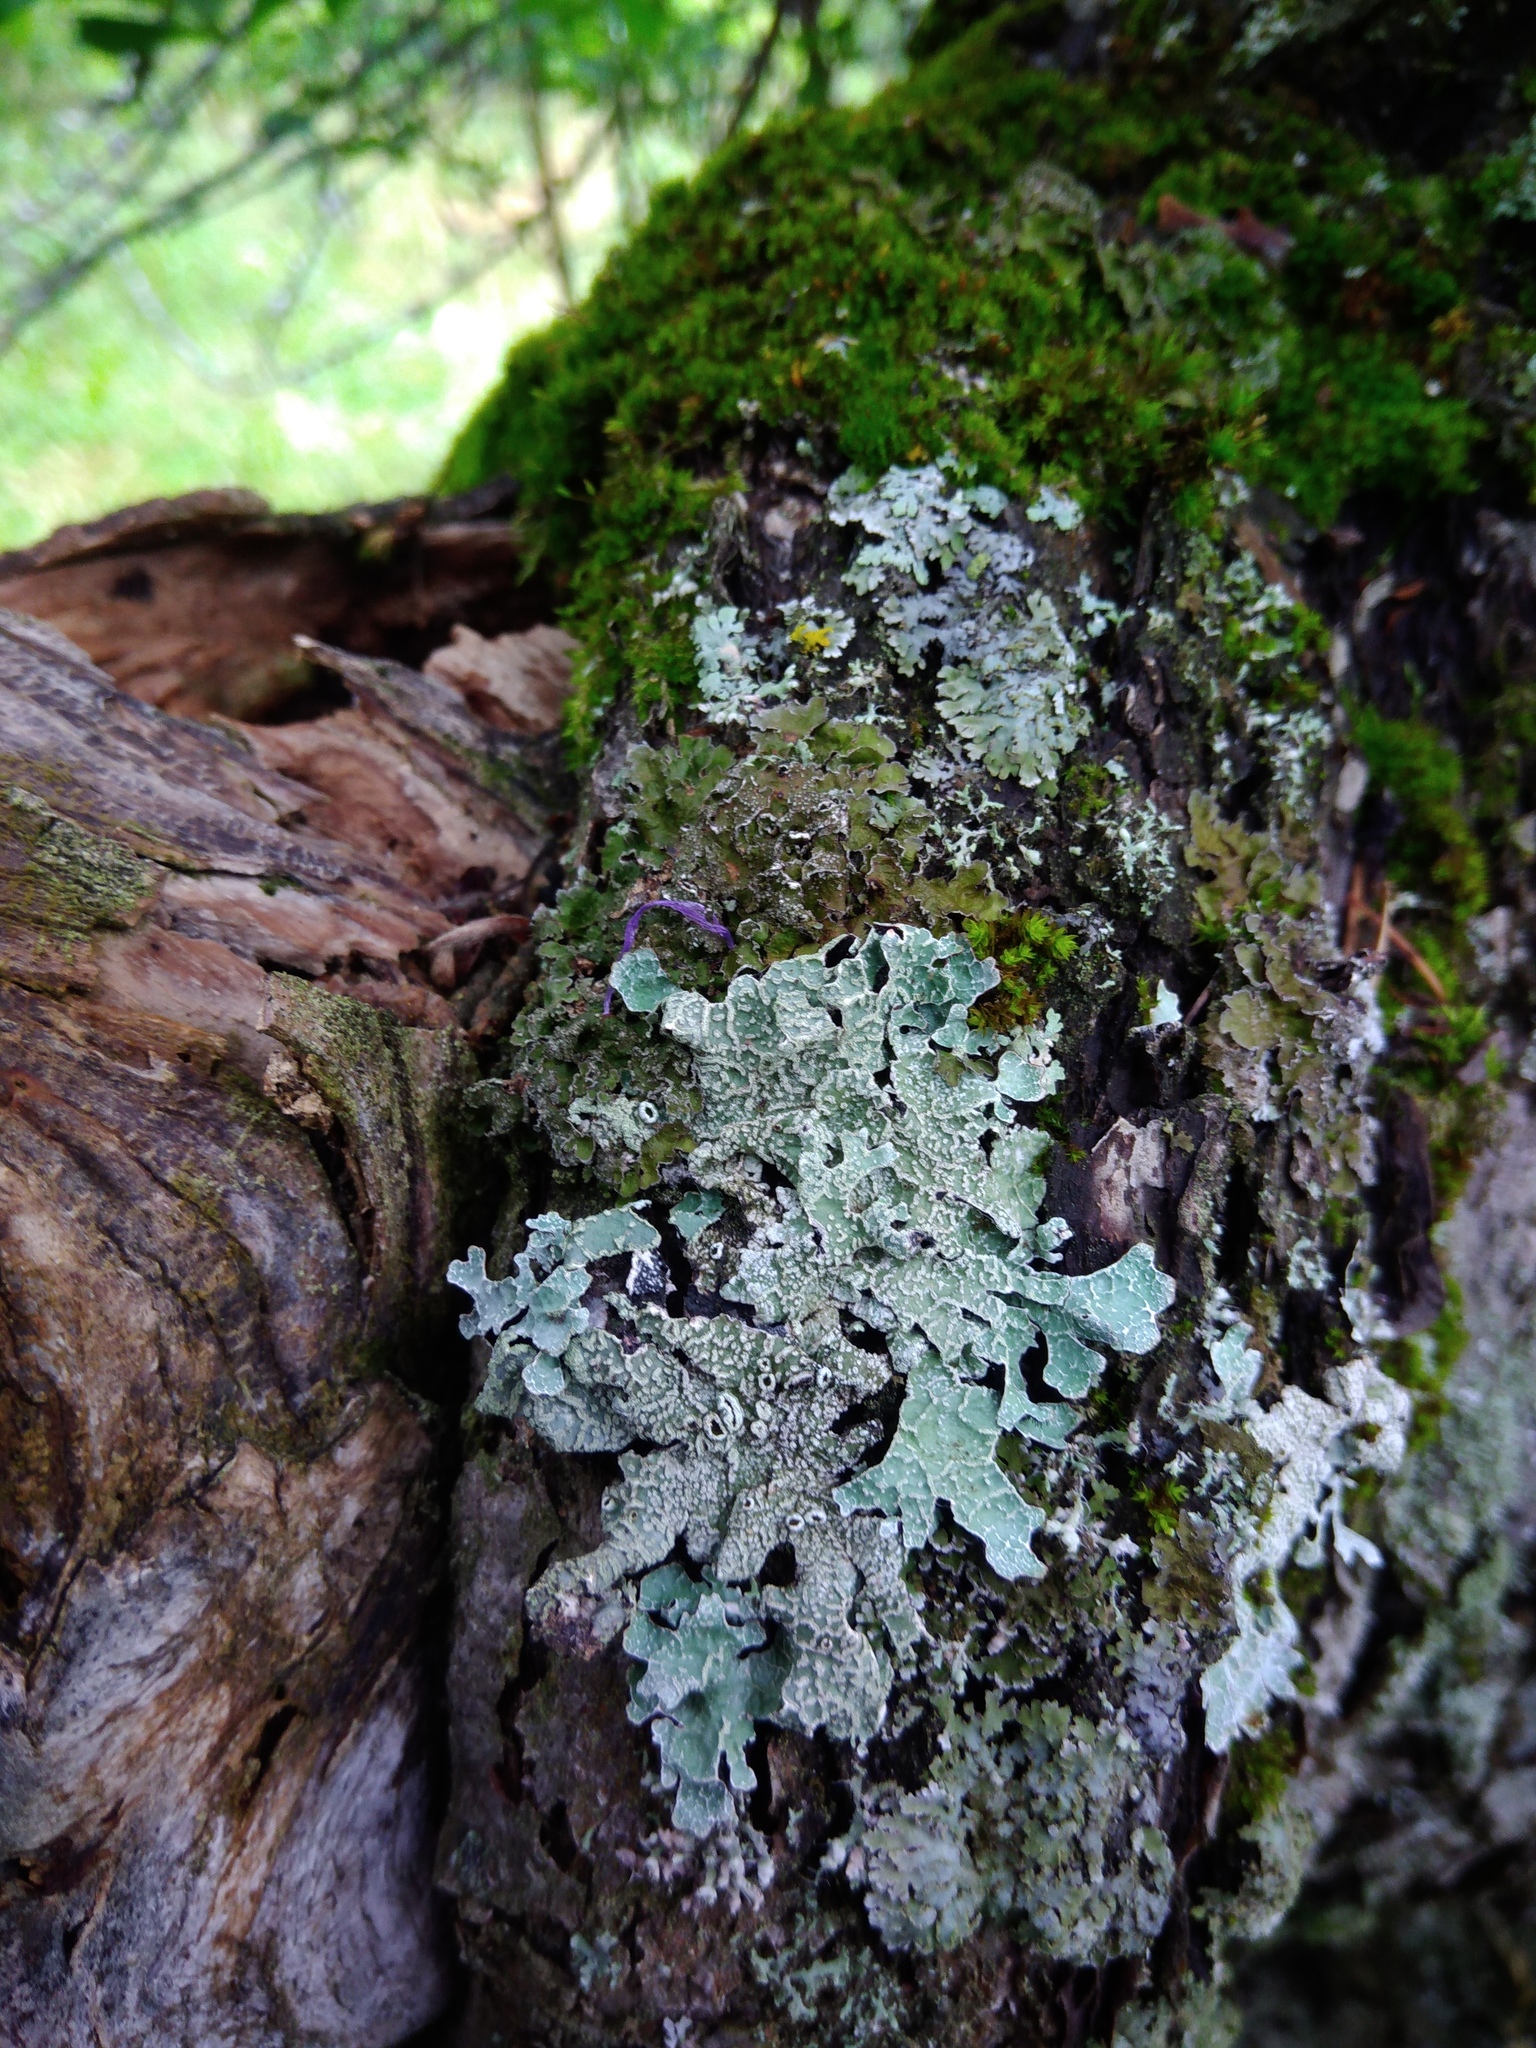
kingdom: Fungi
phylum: Ascomycota
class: Lecanoromycetes
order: Lecanorales
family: Parmeliaceae
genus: Parmelia
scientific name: Parmelia sulcata
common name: Netted shield lichen
